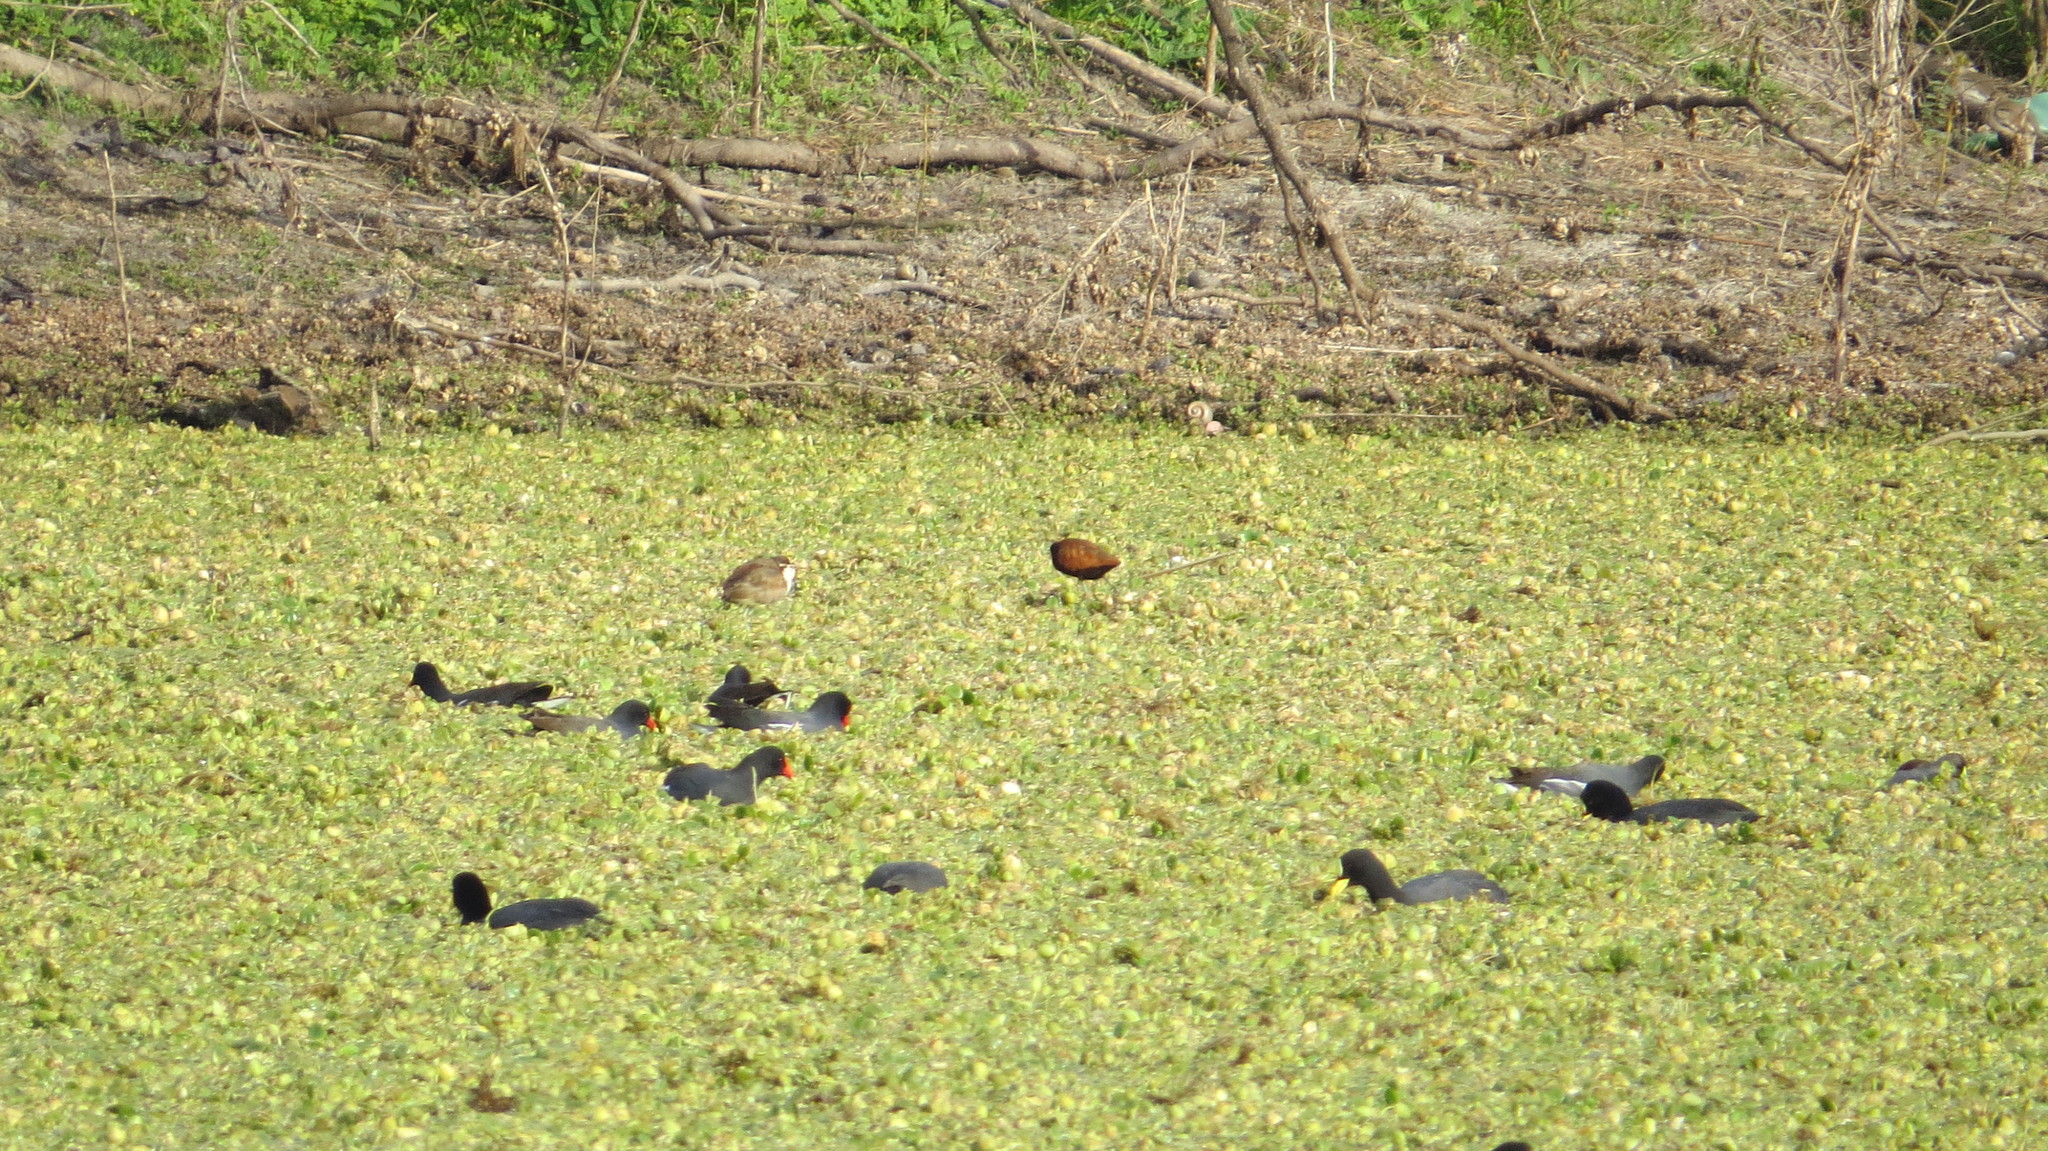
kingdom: Animalia
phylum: Chordata
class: Aves
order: Gruiformes
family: Rallidae
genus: Gallinula
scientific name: Gallinula chloropus
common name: Common moorhen
